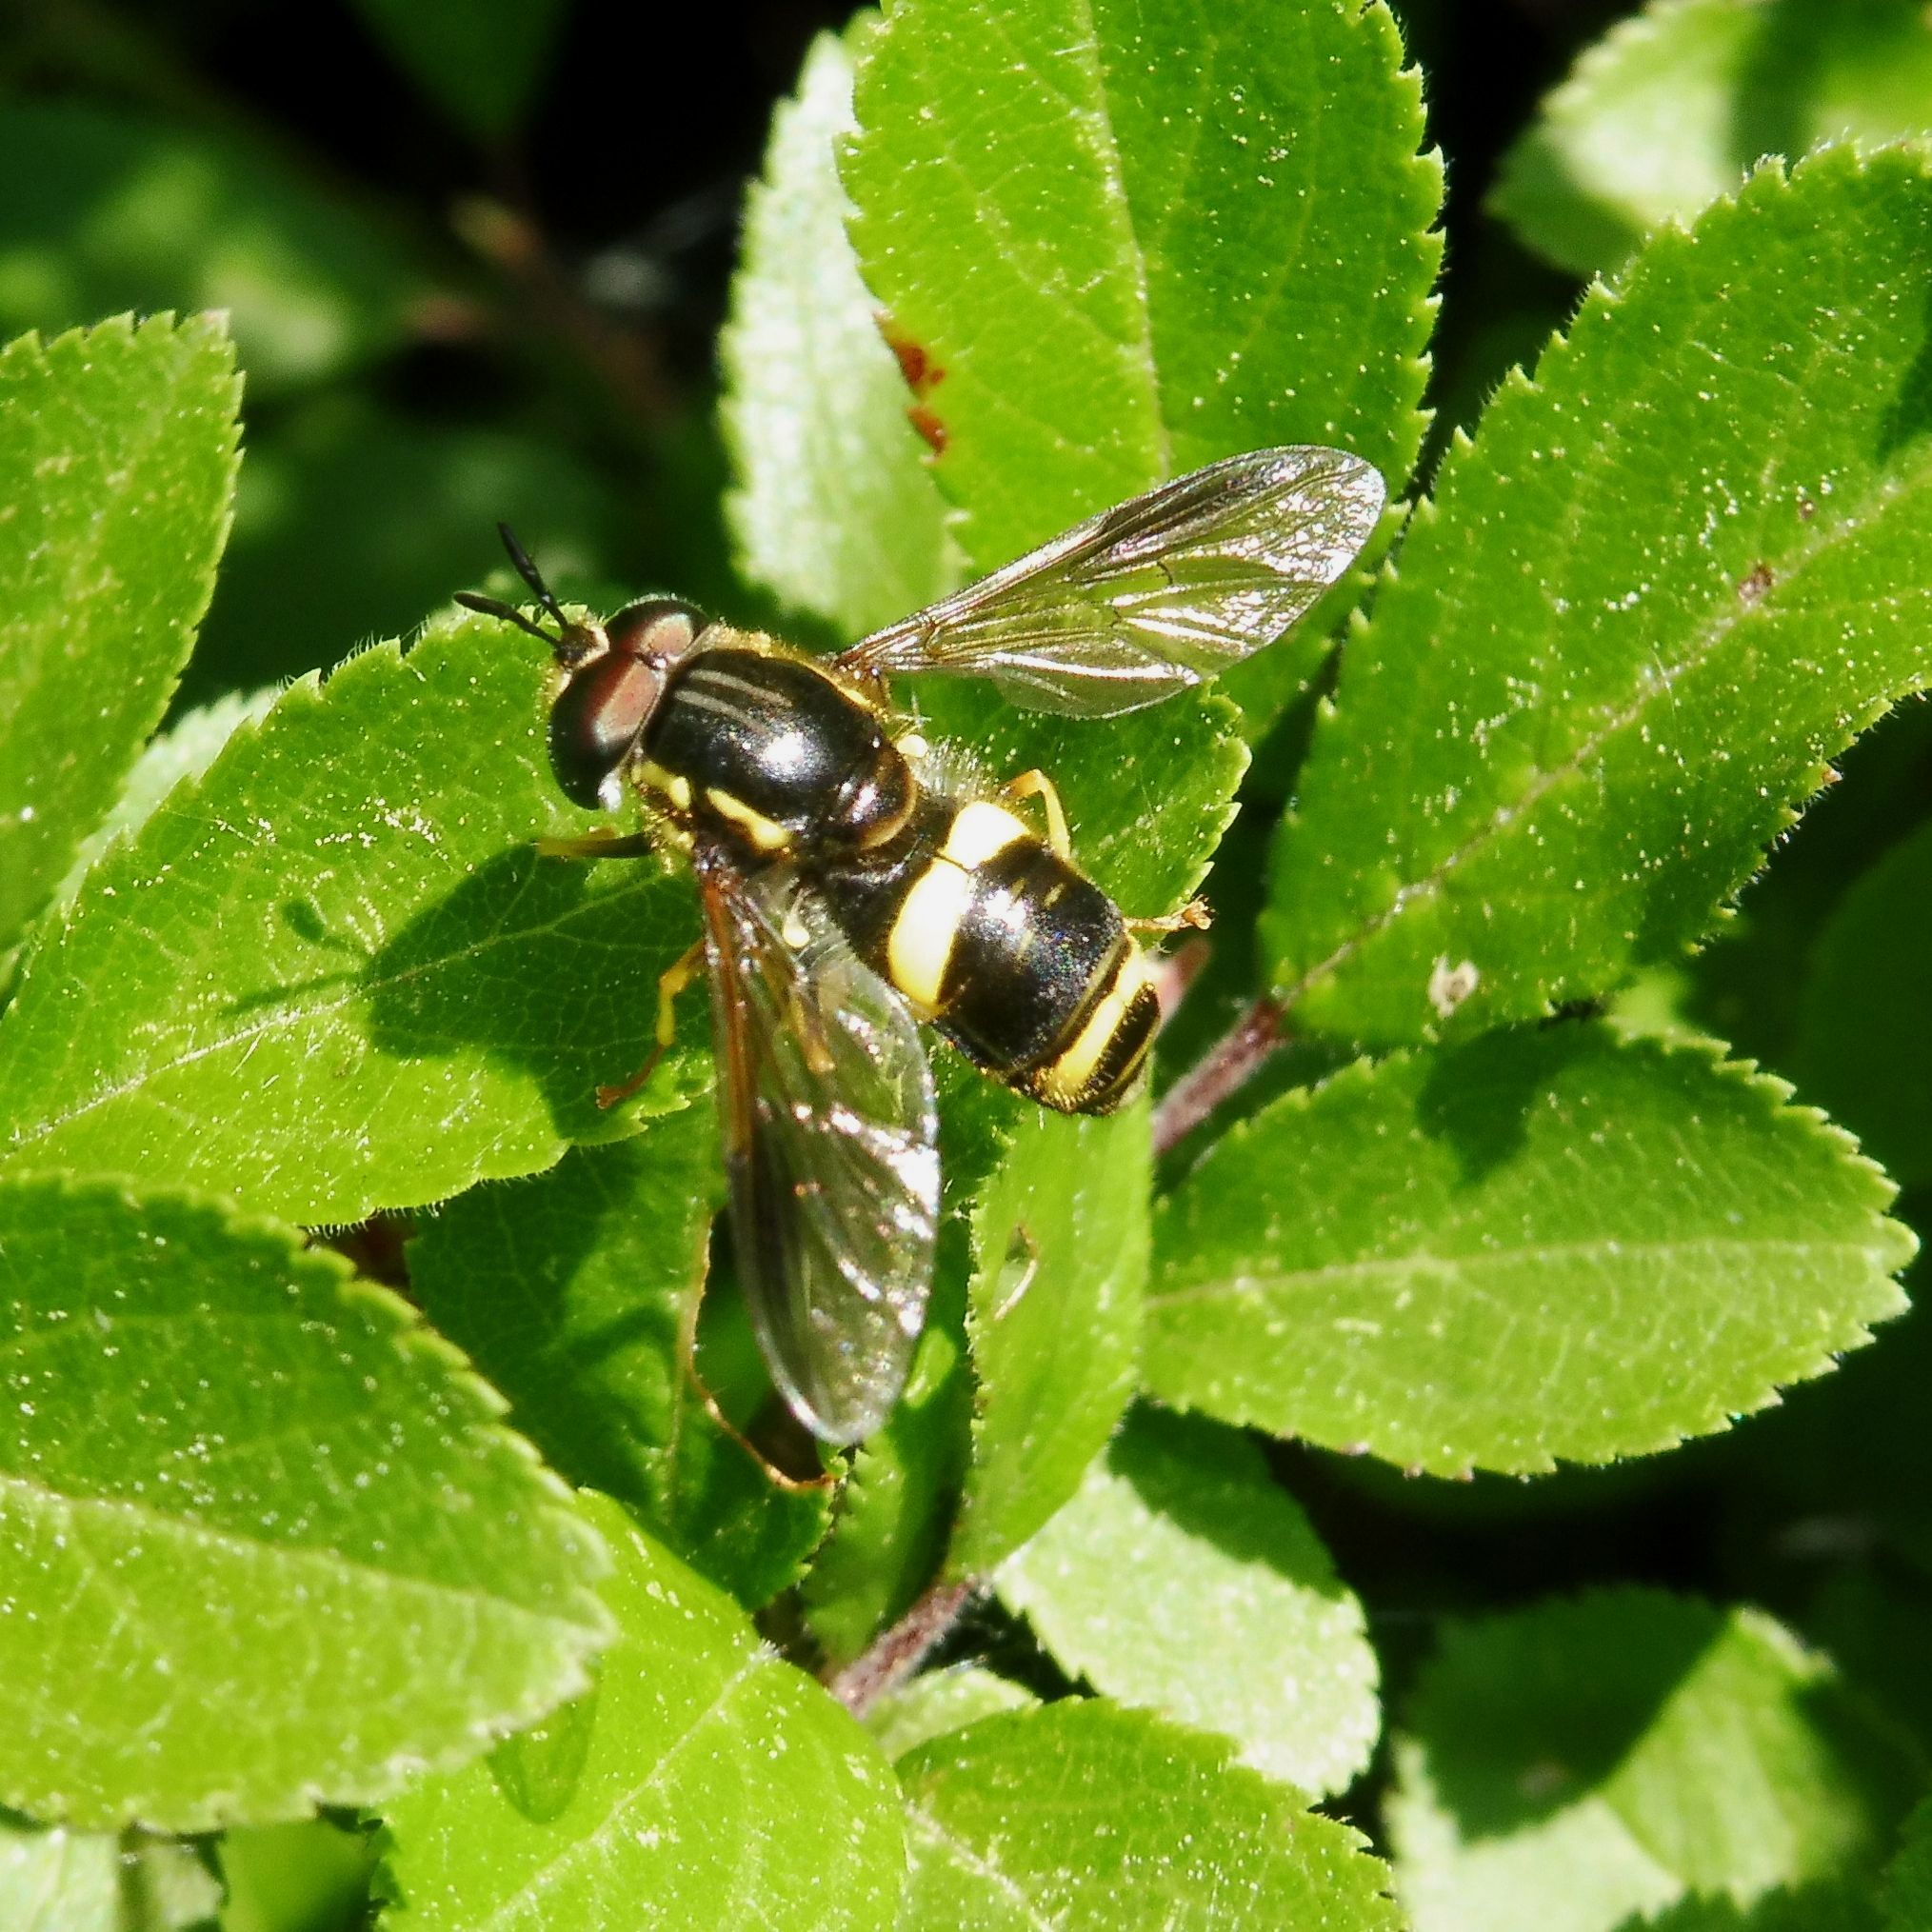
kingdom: Animalia
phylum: Arthropoda
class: Insecta
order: Diptera
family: Syrphidae
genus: Chrysotoxum
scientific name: Chrysotoxum bicincta
